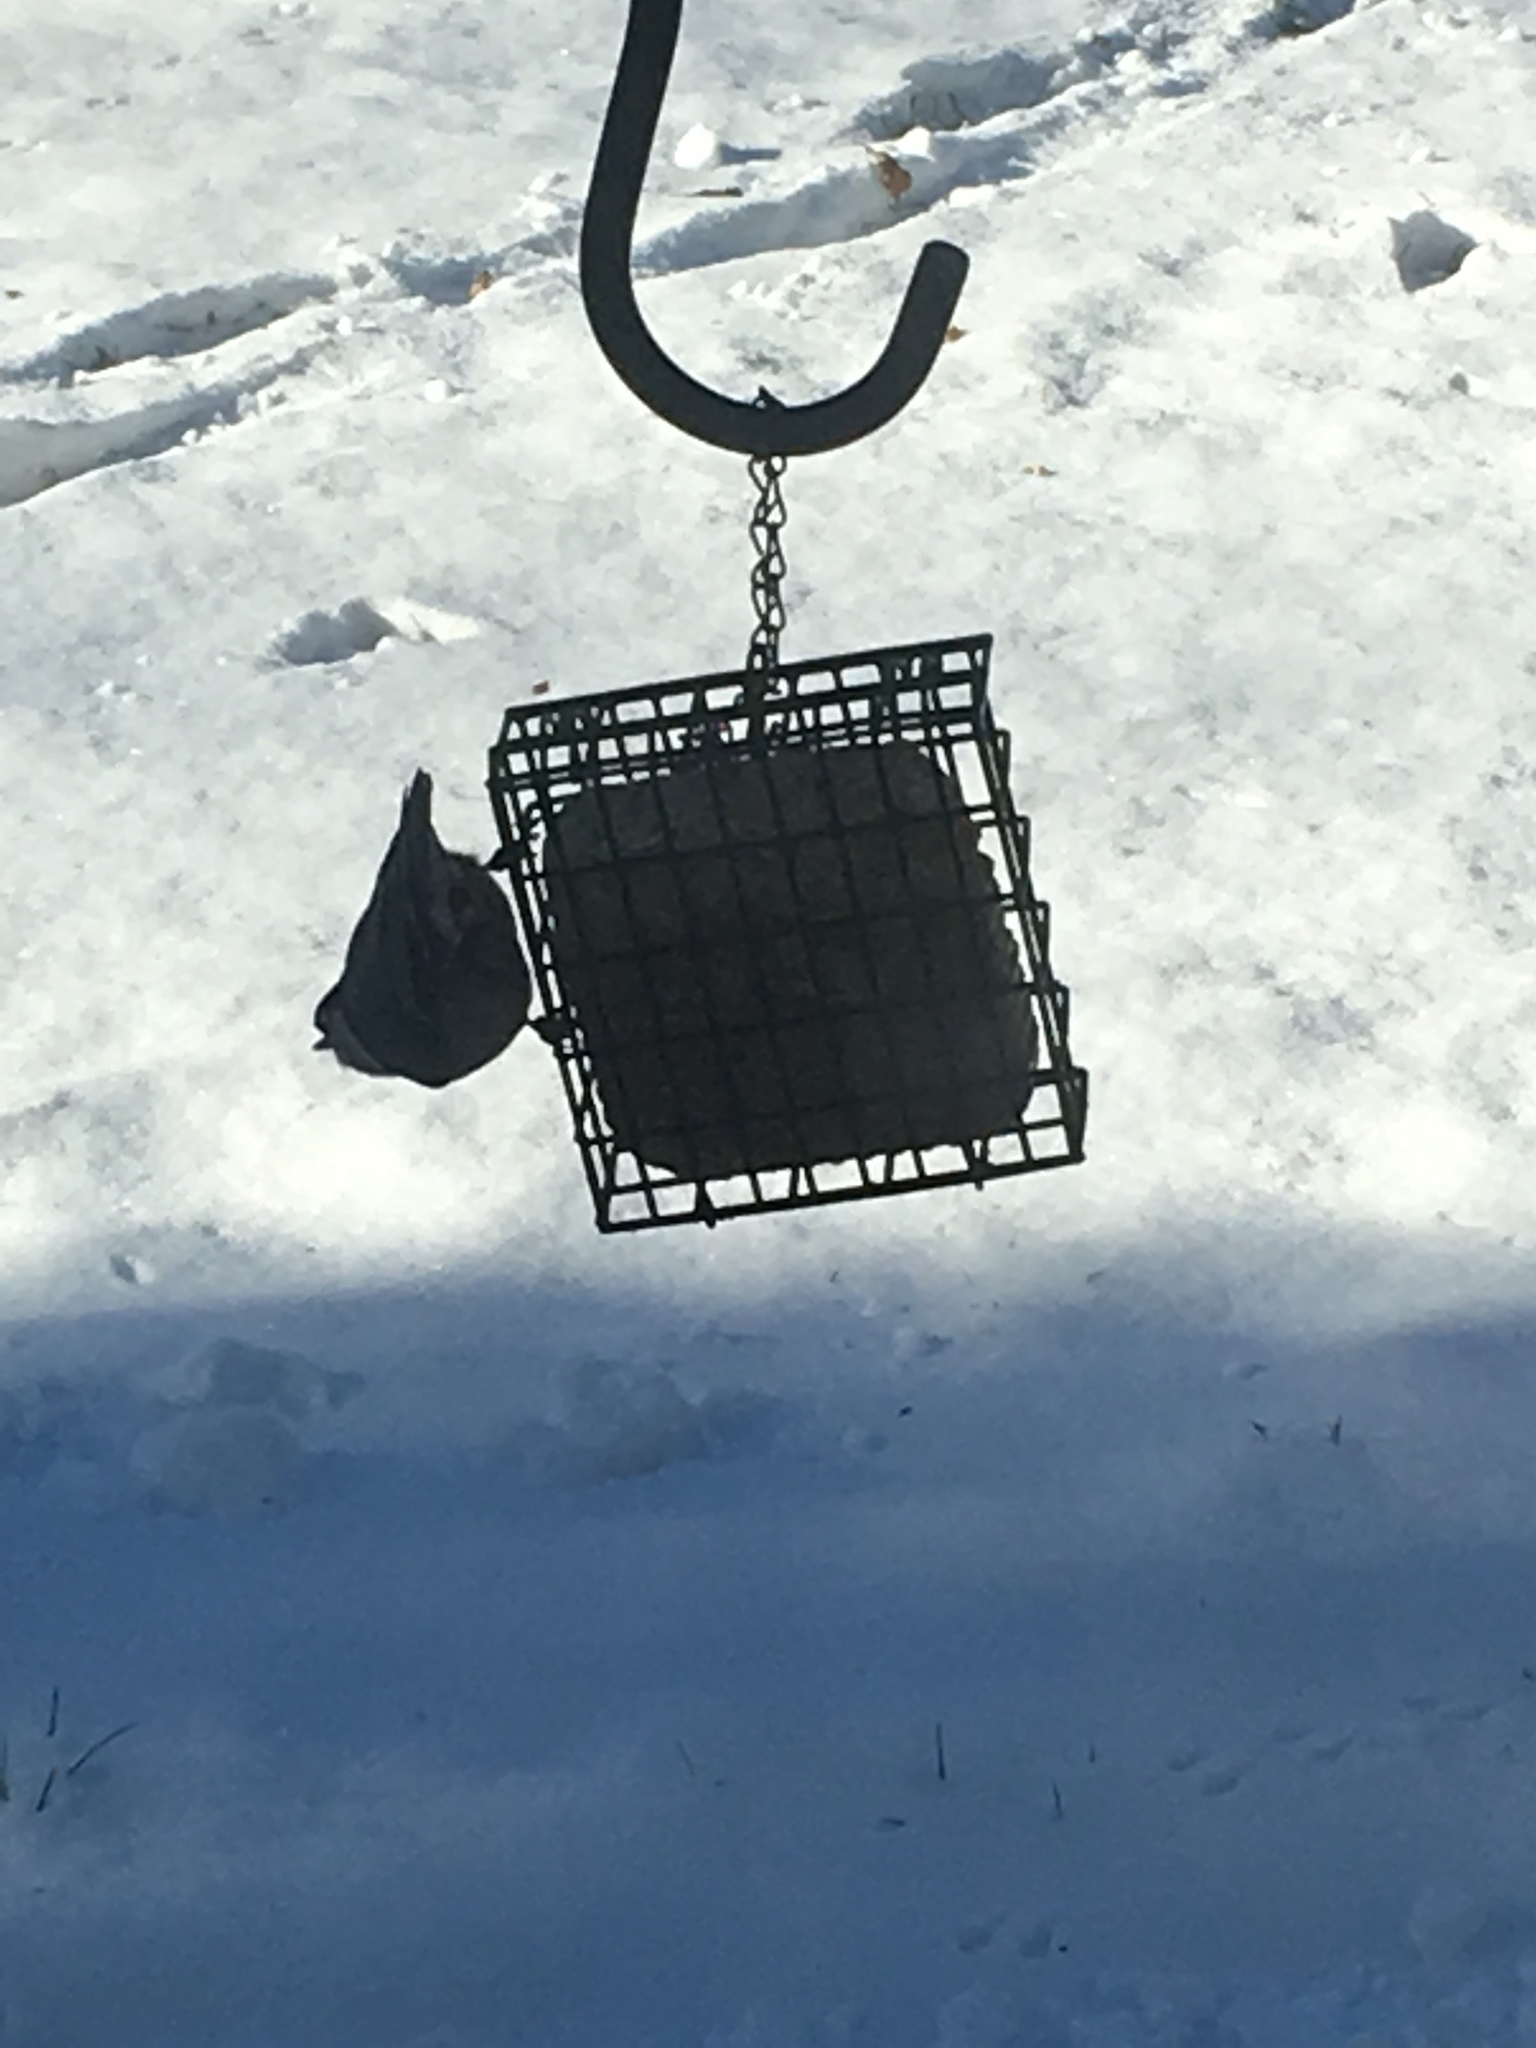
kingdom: Animalia
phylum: Chordata
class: Aves
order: Passeriformes
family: Sittidae
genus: Sitta
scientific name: Sitta carolinensis
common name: White-breasted nuthatch
